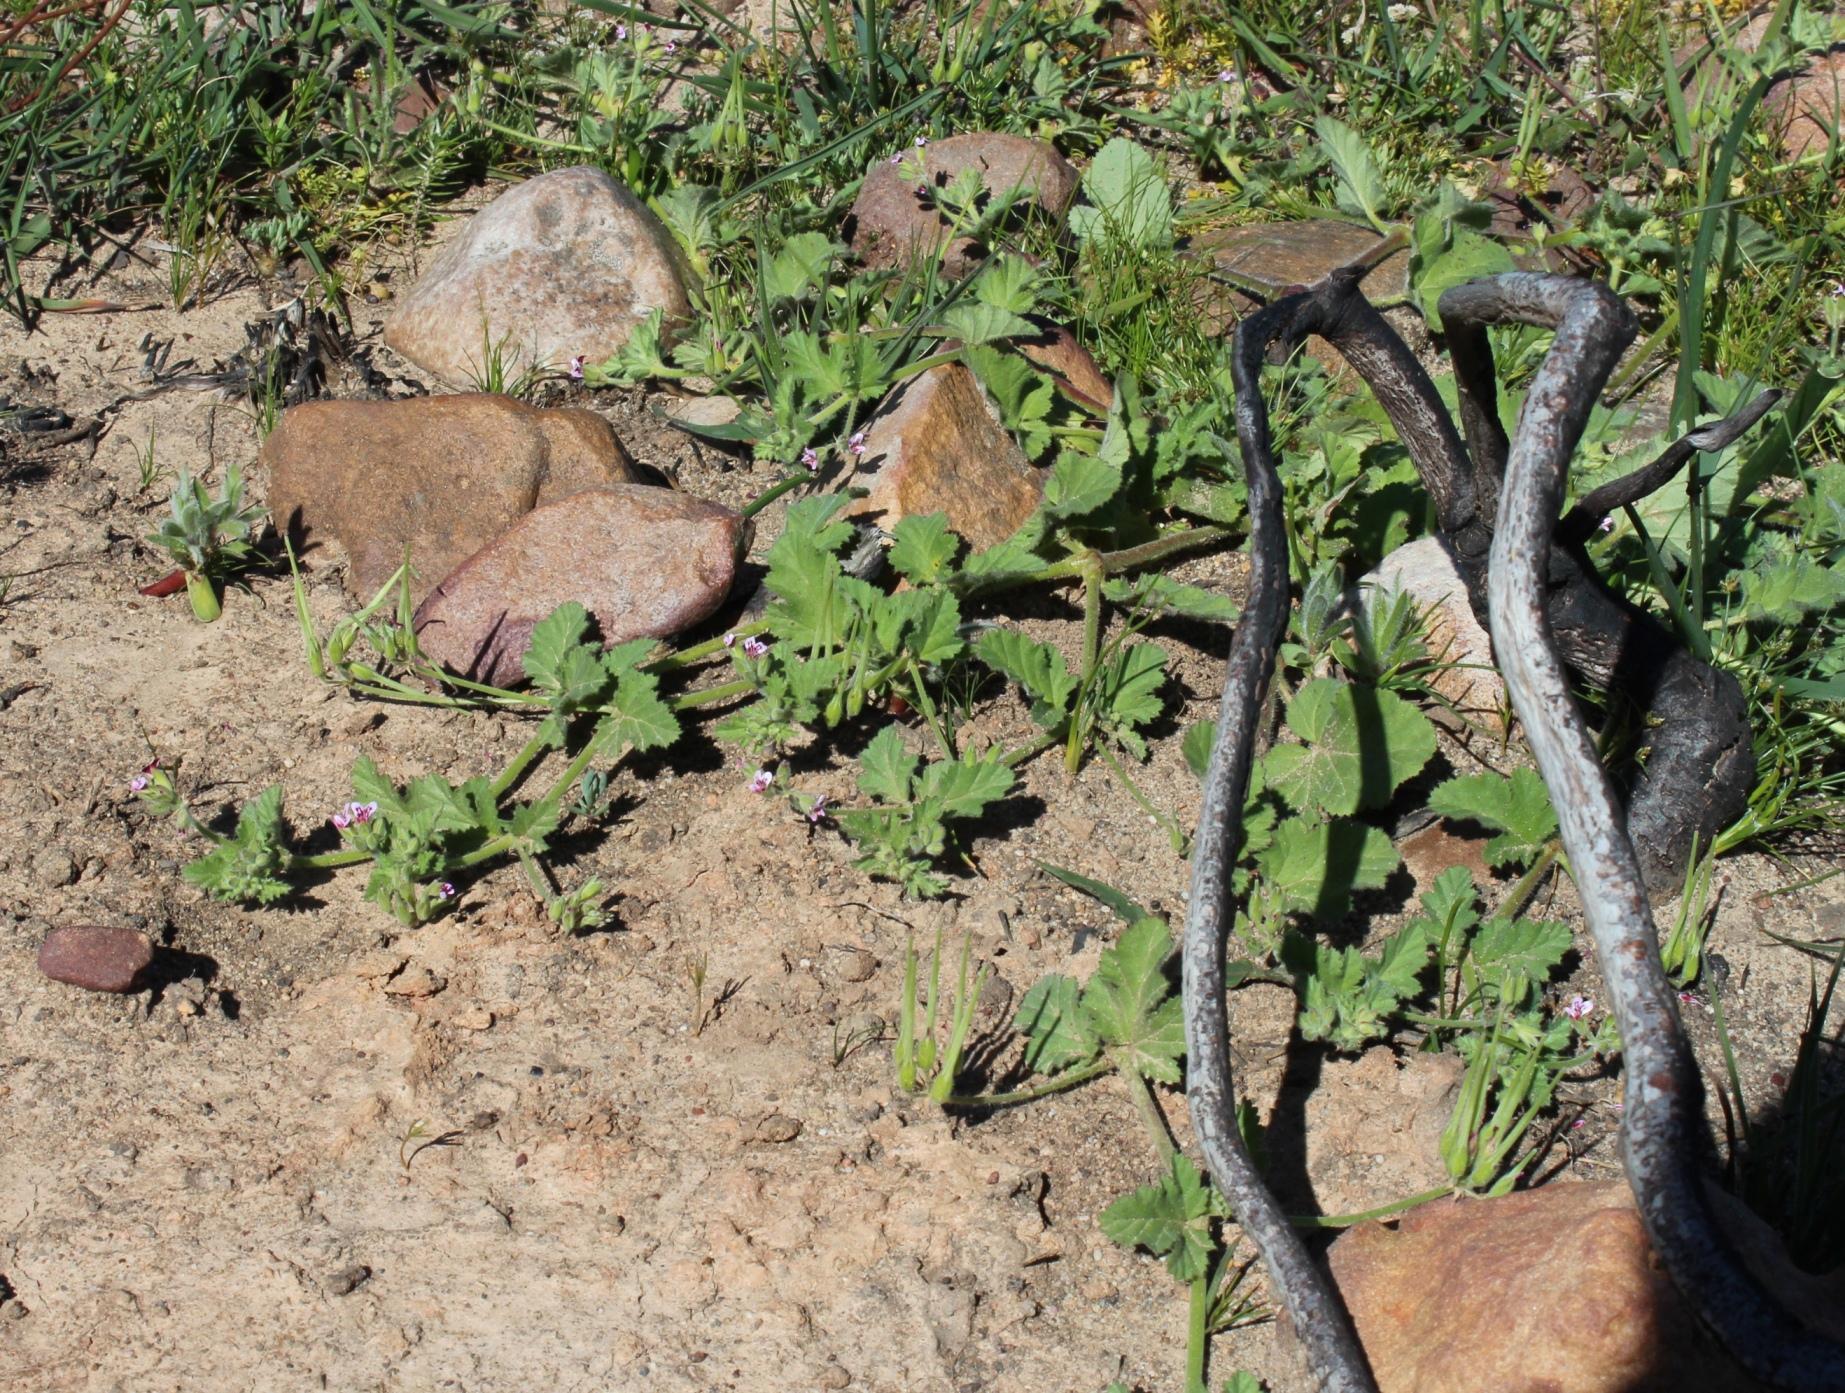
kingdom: Plantae
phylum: Tracheophyta
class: Magnoliopsida
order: Geraniales
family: Geraniaceae
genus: Pelargonium
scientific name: Pelargonium althaeoides
